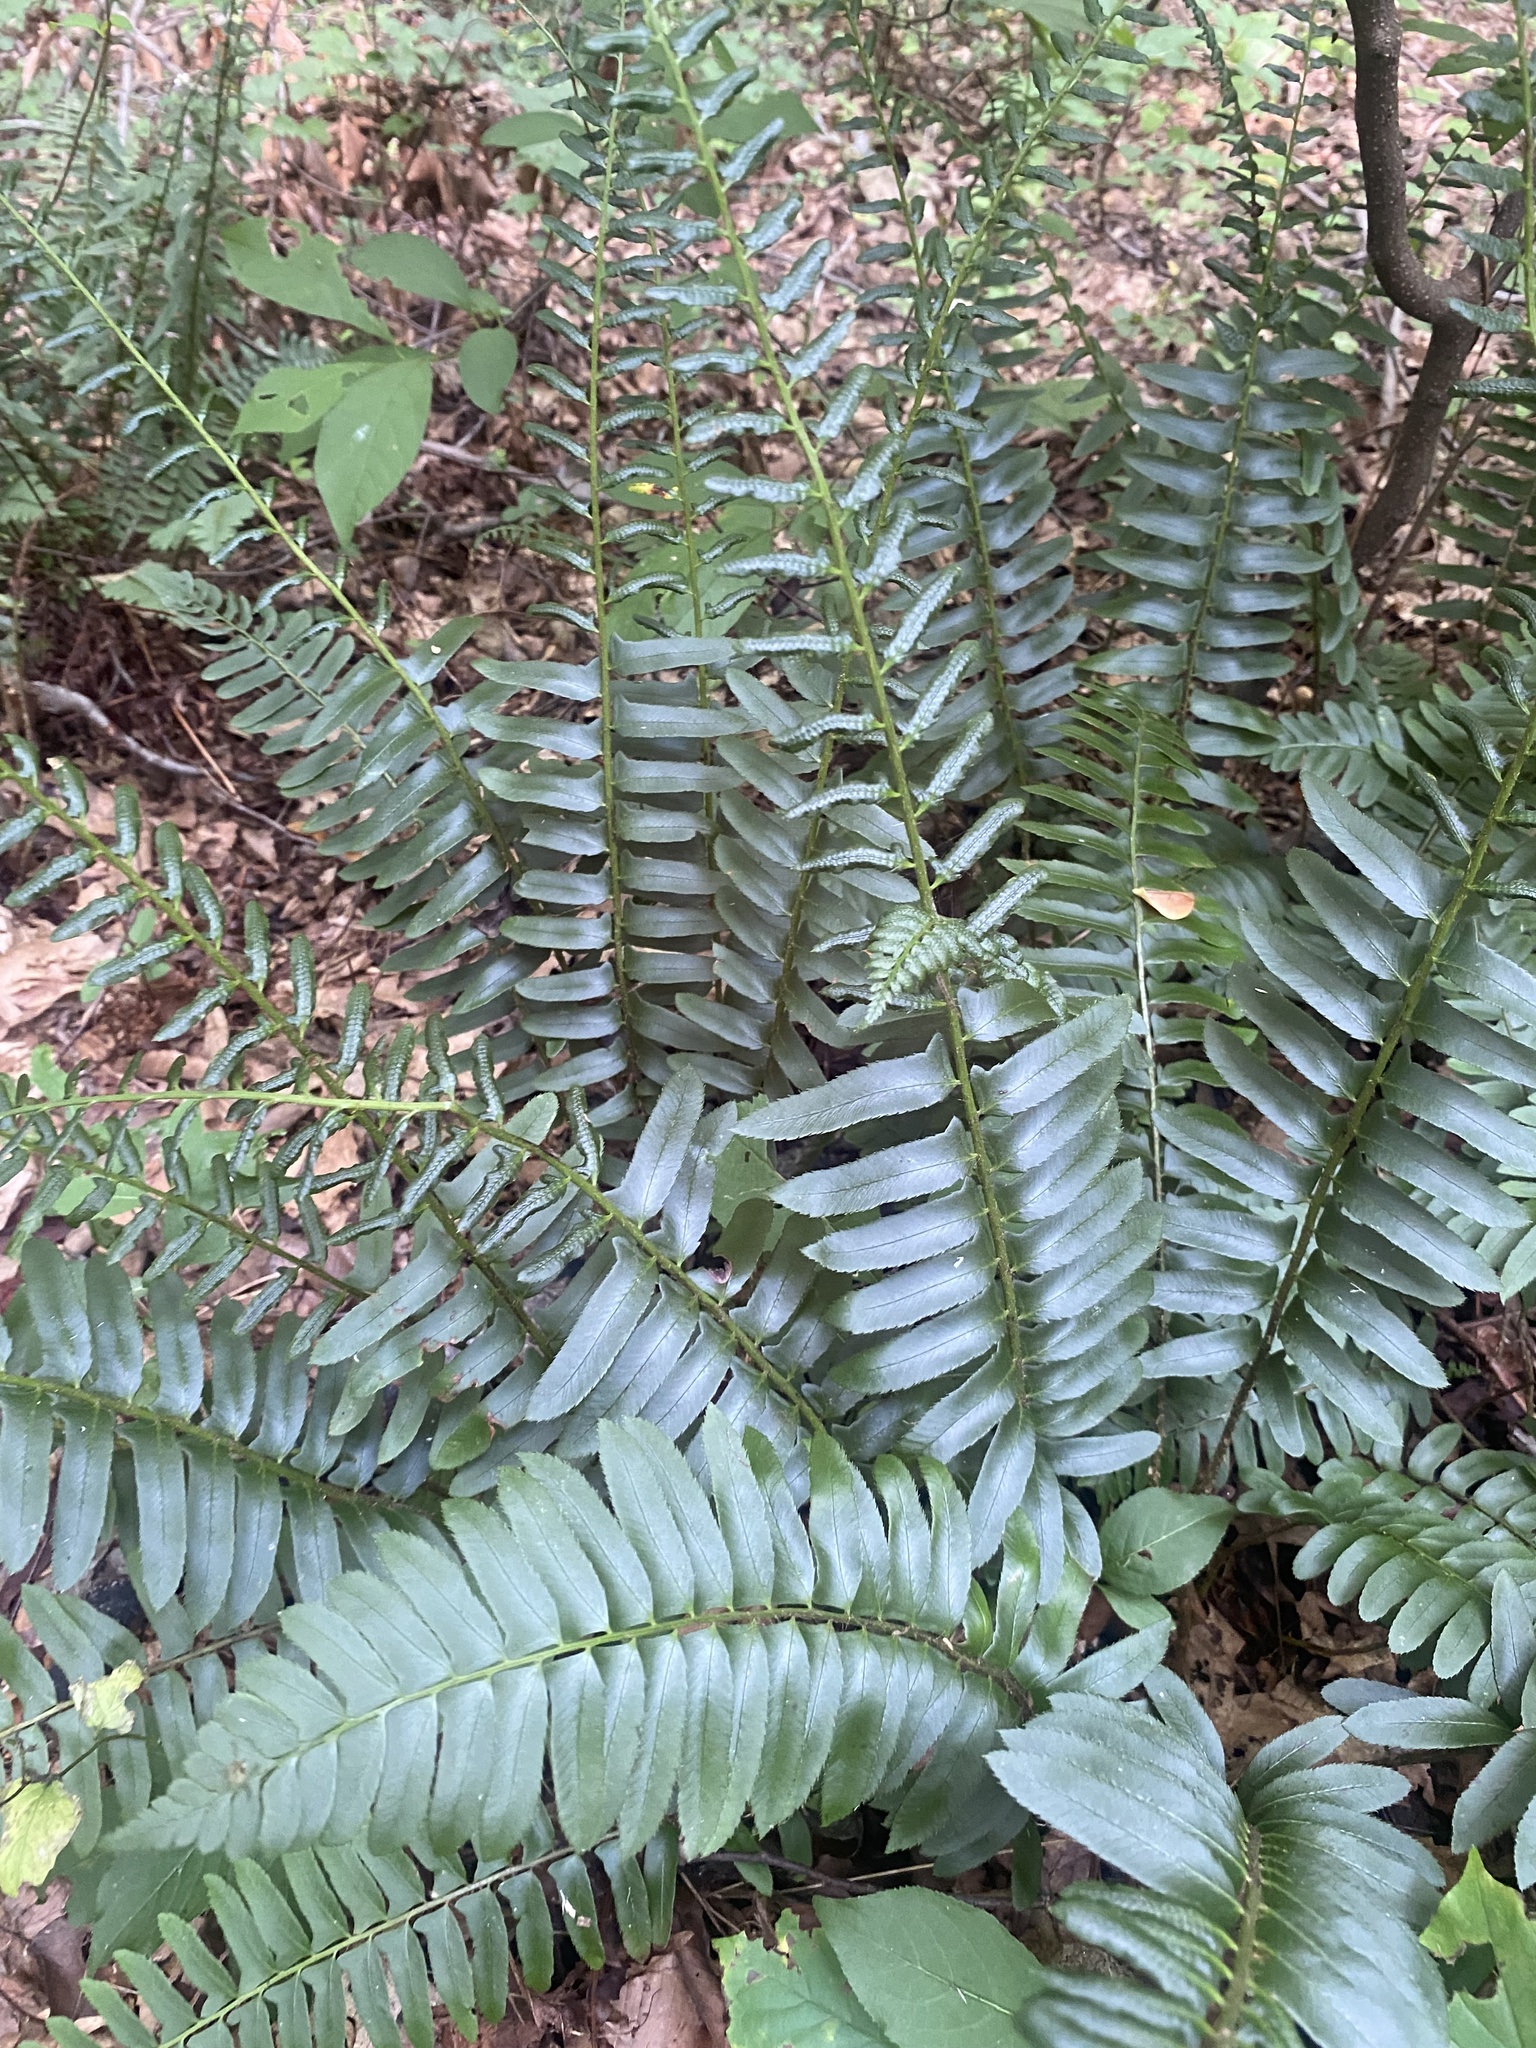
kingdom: Plantae
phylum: Tracheophyta
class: Polypodiopsida
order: Polypodiales
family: Dryopteridaceae
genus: Polystichum
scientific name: Polystichum acrostichoides
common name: Christmas fern
